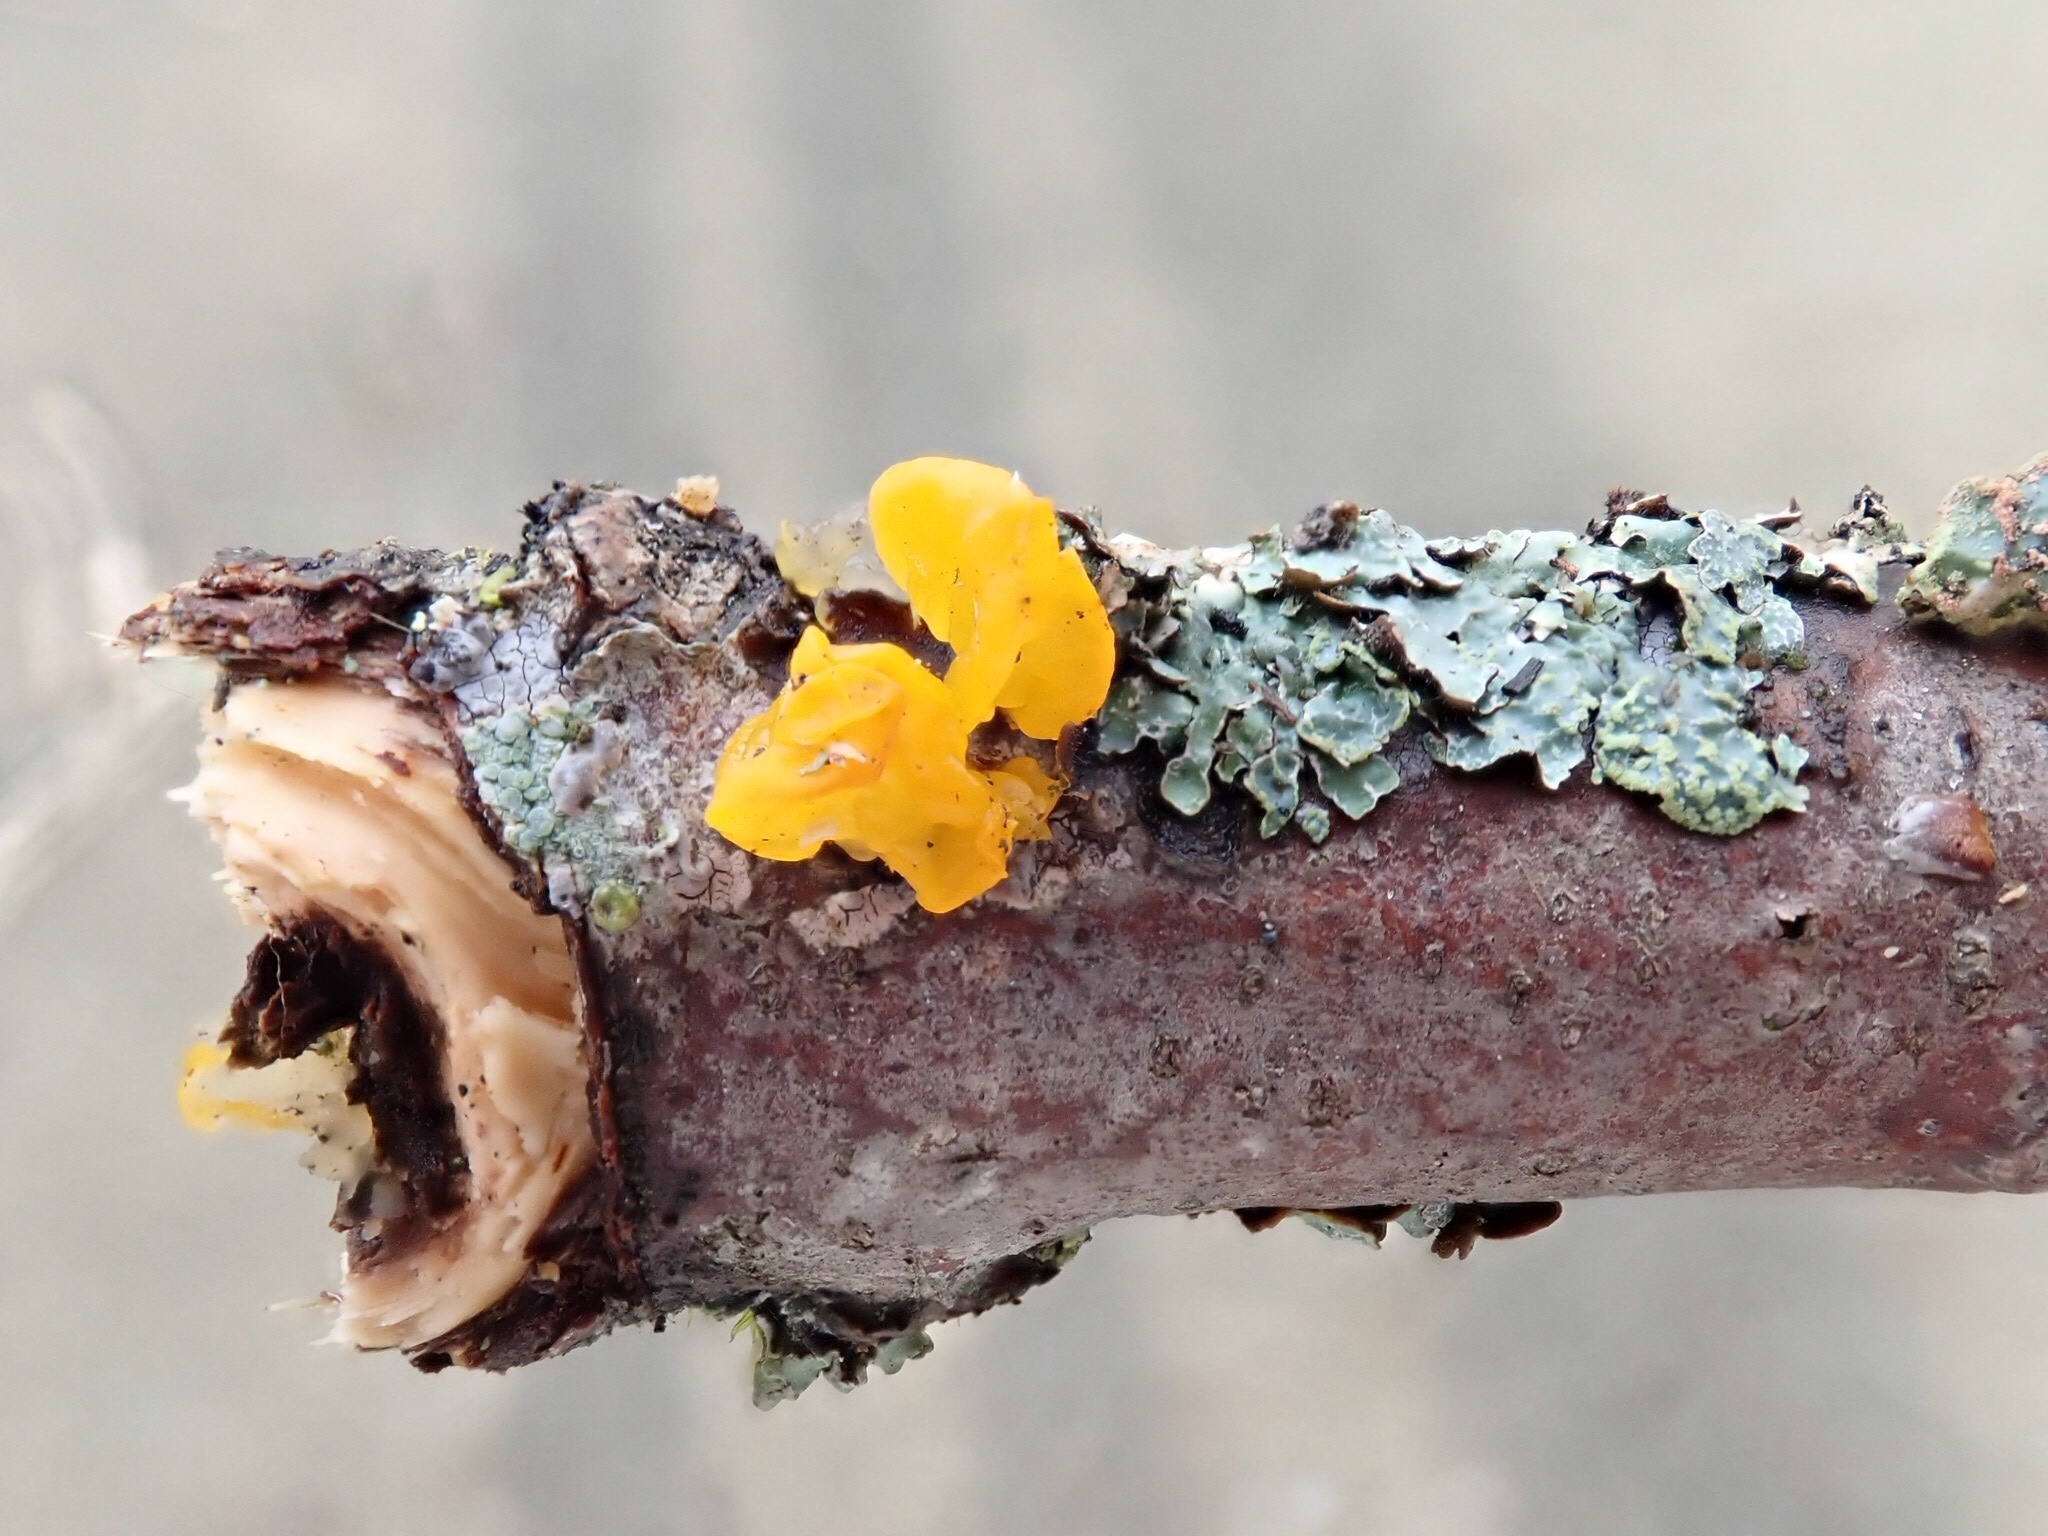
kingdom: Fungi
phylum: Basidiomycota
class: Tremellomycetes
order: Tremellales
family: Tremellaceae
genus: Tremella
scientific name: Tremella mesenterica
